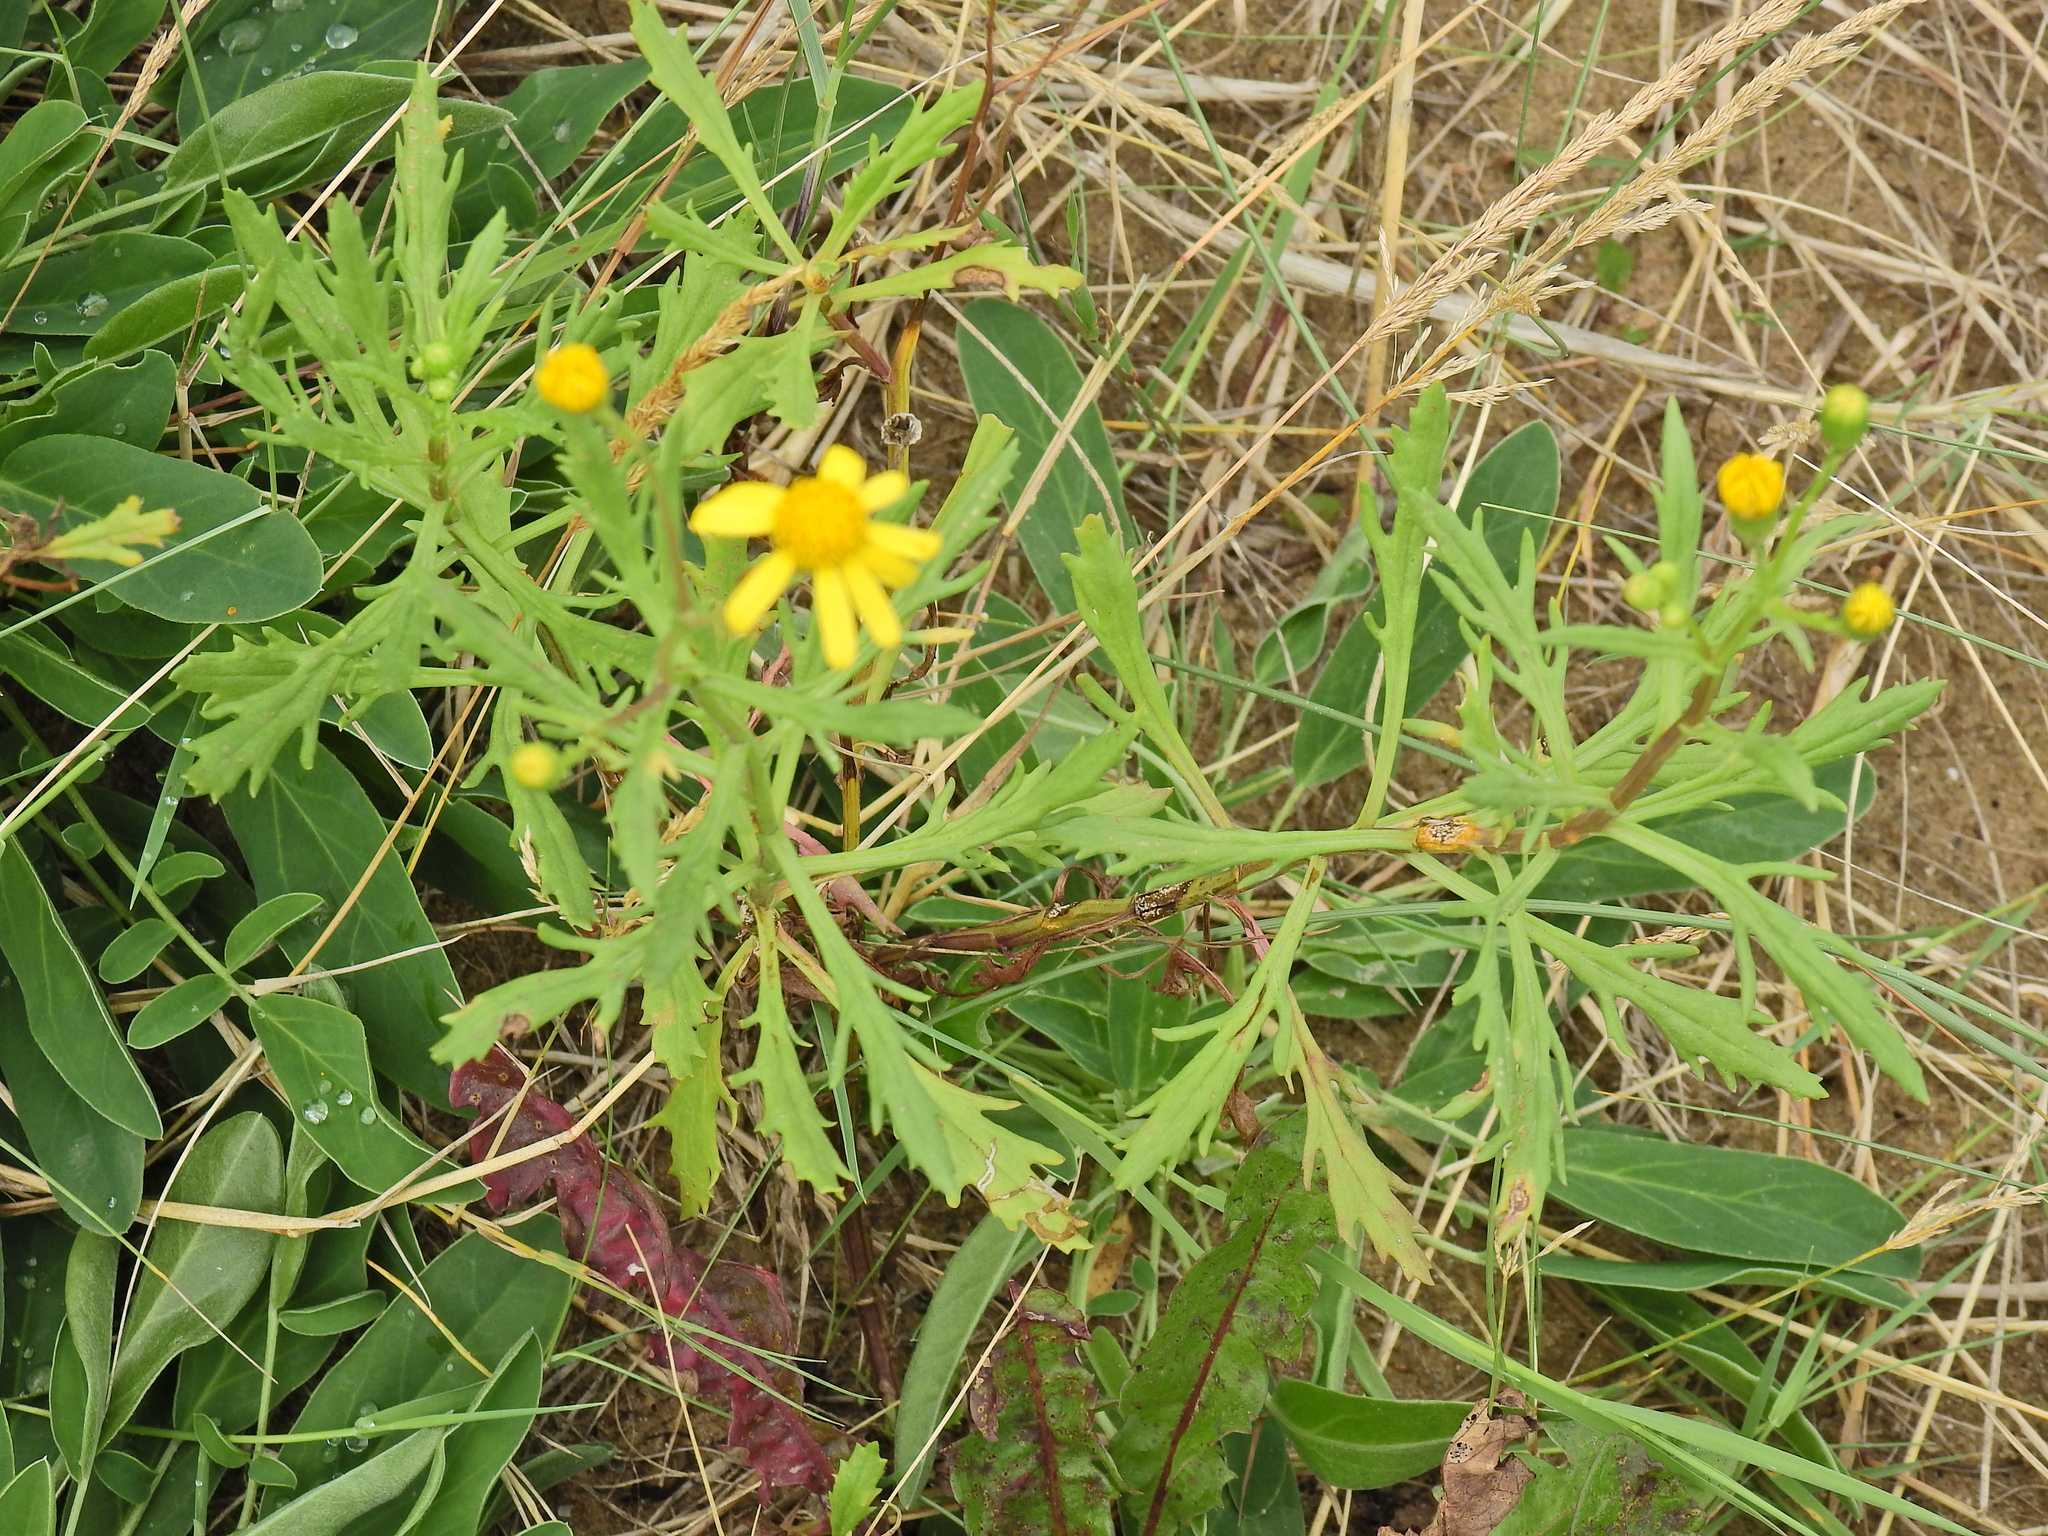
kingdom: Plantae
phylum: Tracheophyta
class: Magnoliopsida
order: Asterales
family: Asteraceae
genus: Senecio
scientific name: Senecio squalidus
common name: Oxford ragwort
